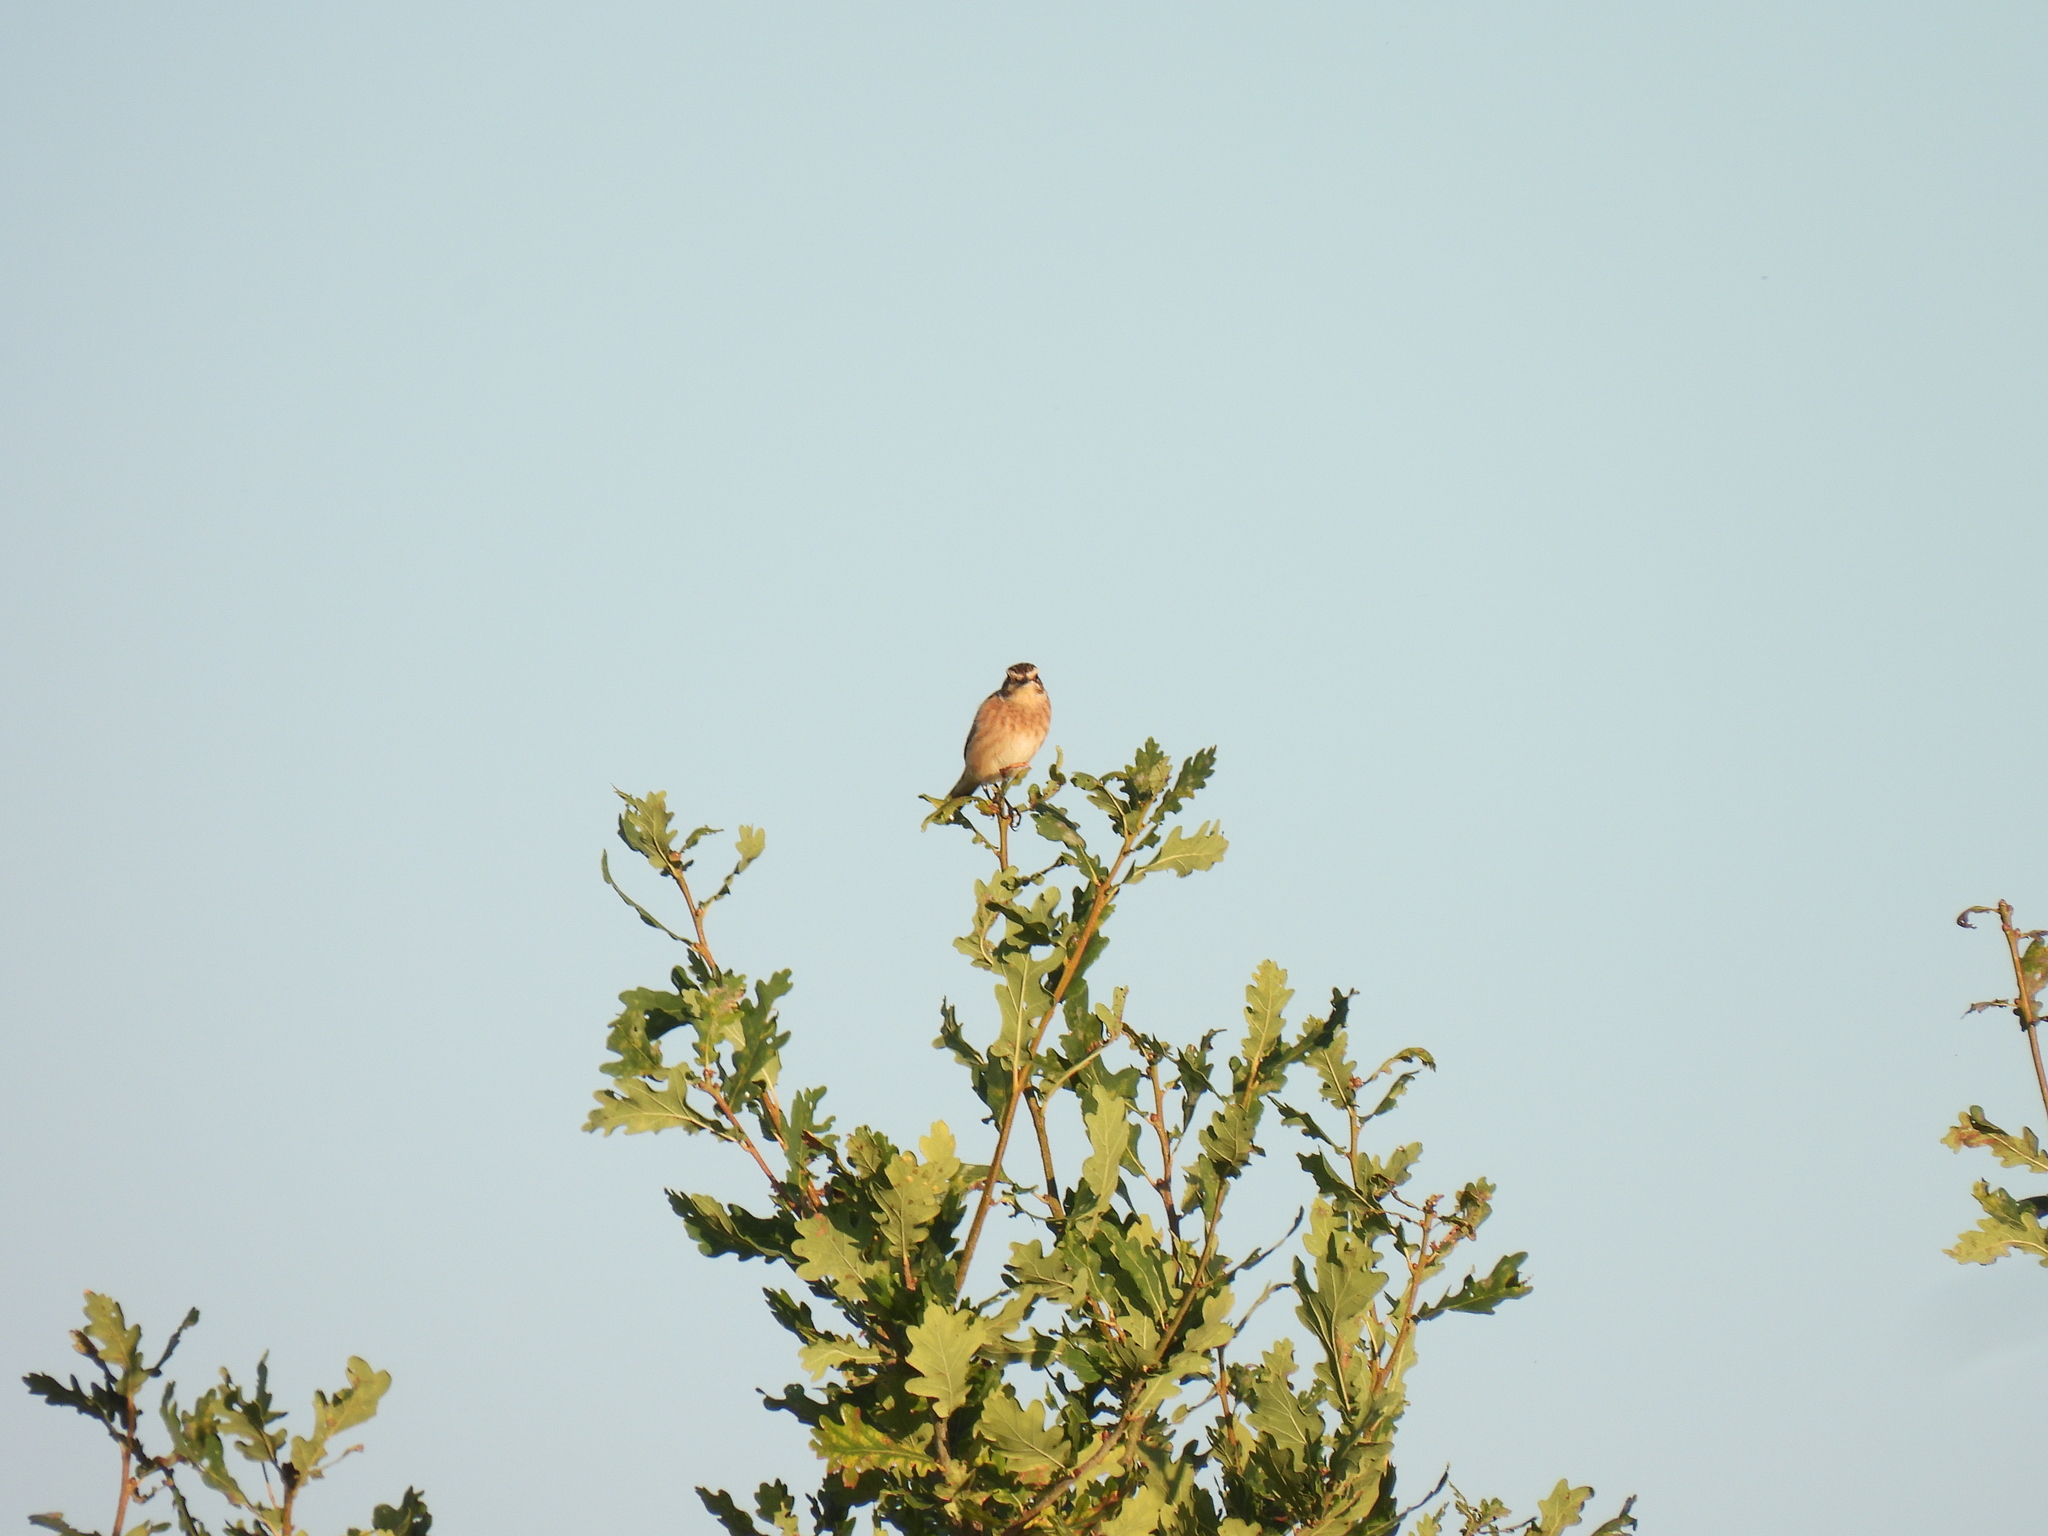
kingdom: Animalia
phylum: Chordata
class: Aves
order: Passeriformes
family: Muscicapidae
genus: Saxicola
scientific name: Saxicola rubetra
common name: Whinchat
